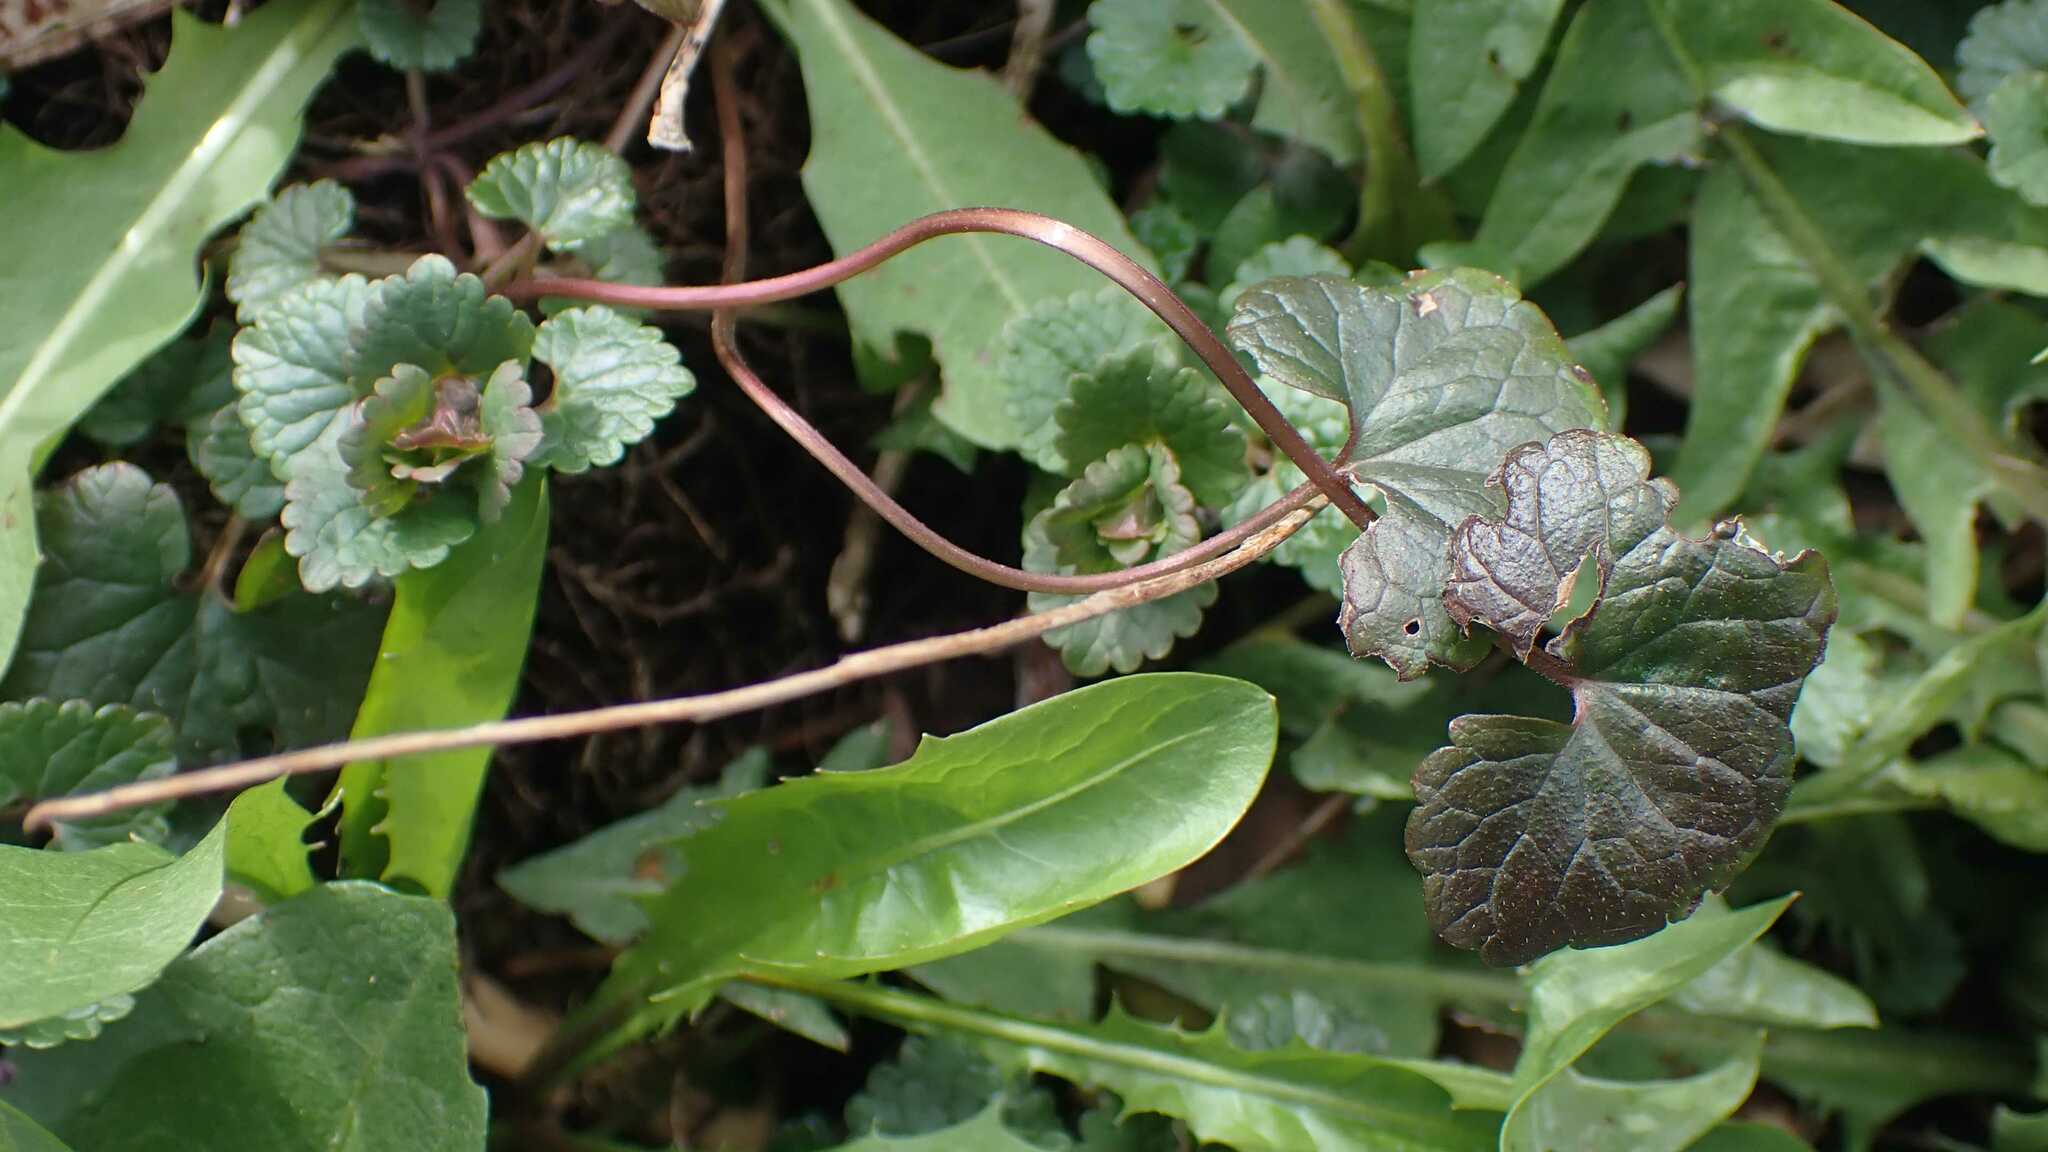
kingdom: Plantae
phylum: Tracheophyta
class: Magnoliopsida
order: Lamiales
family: Lamiaceae
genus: Glechoma
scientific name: Glechoma hederacea
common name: Ground ivy
